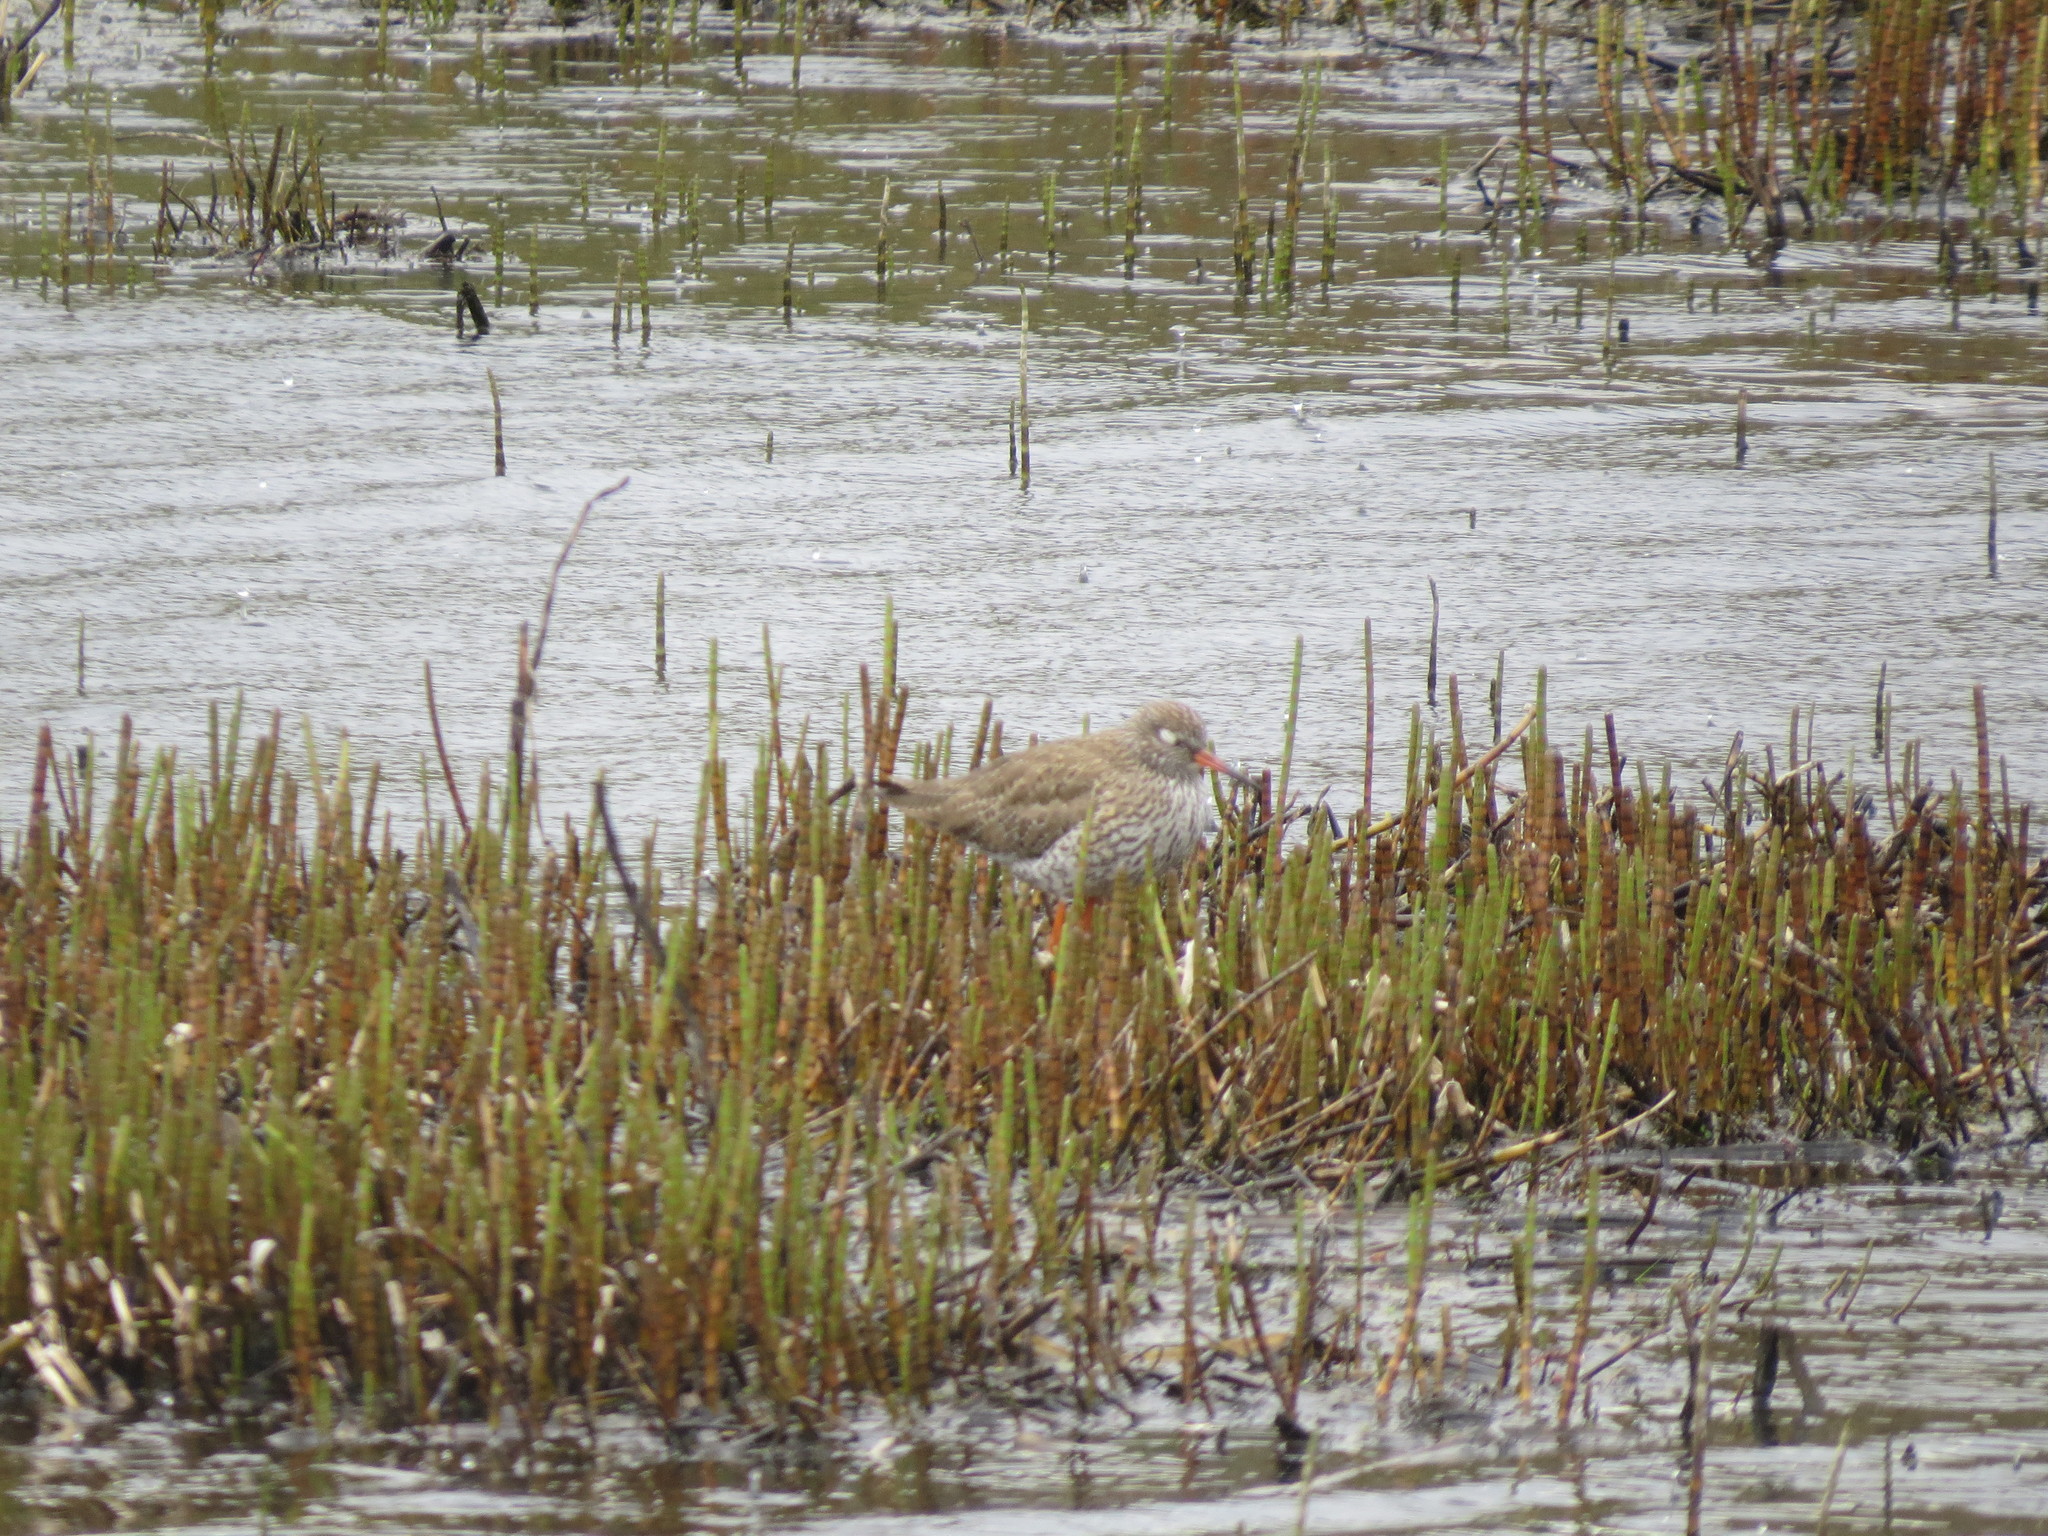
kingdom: Animalia
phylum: Chordata
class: Aves
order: Charadriiformes
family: Scolopacidae
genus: Tringa
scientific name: Tringa totanus
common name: Common redshank
